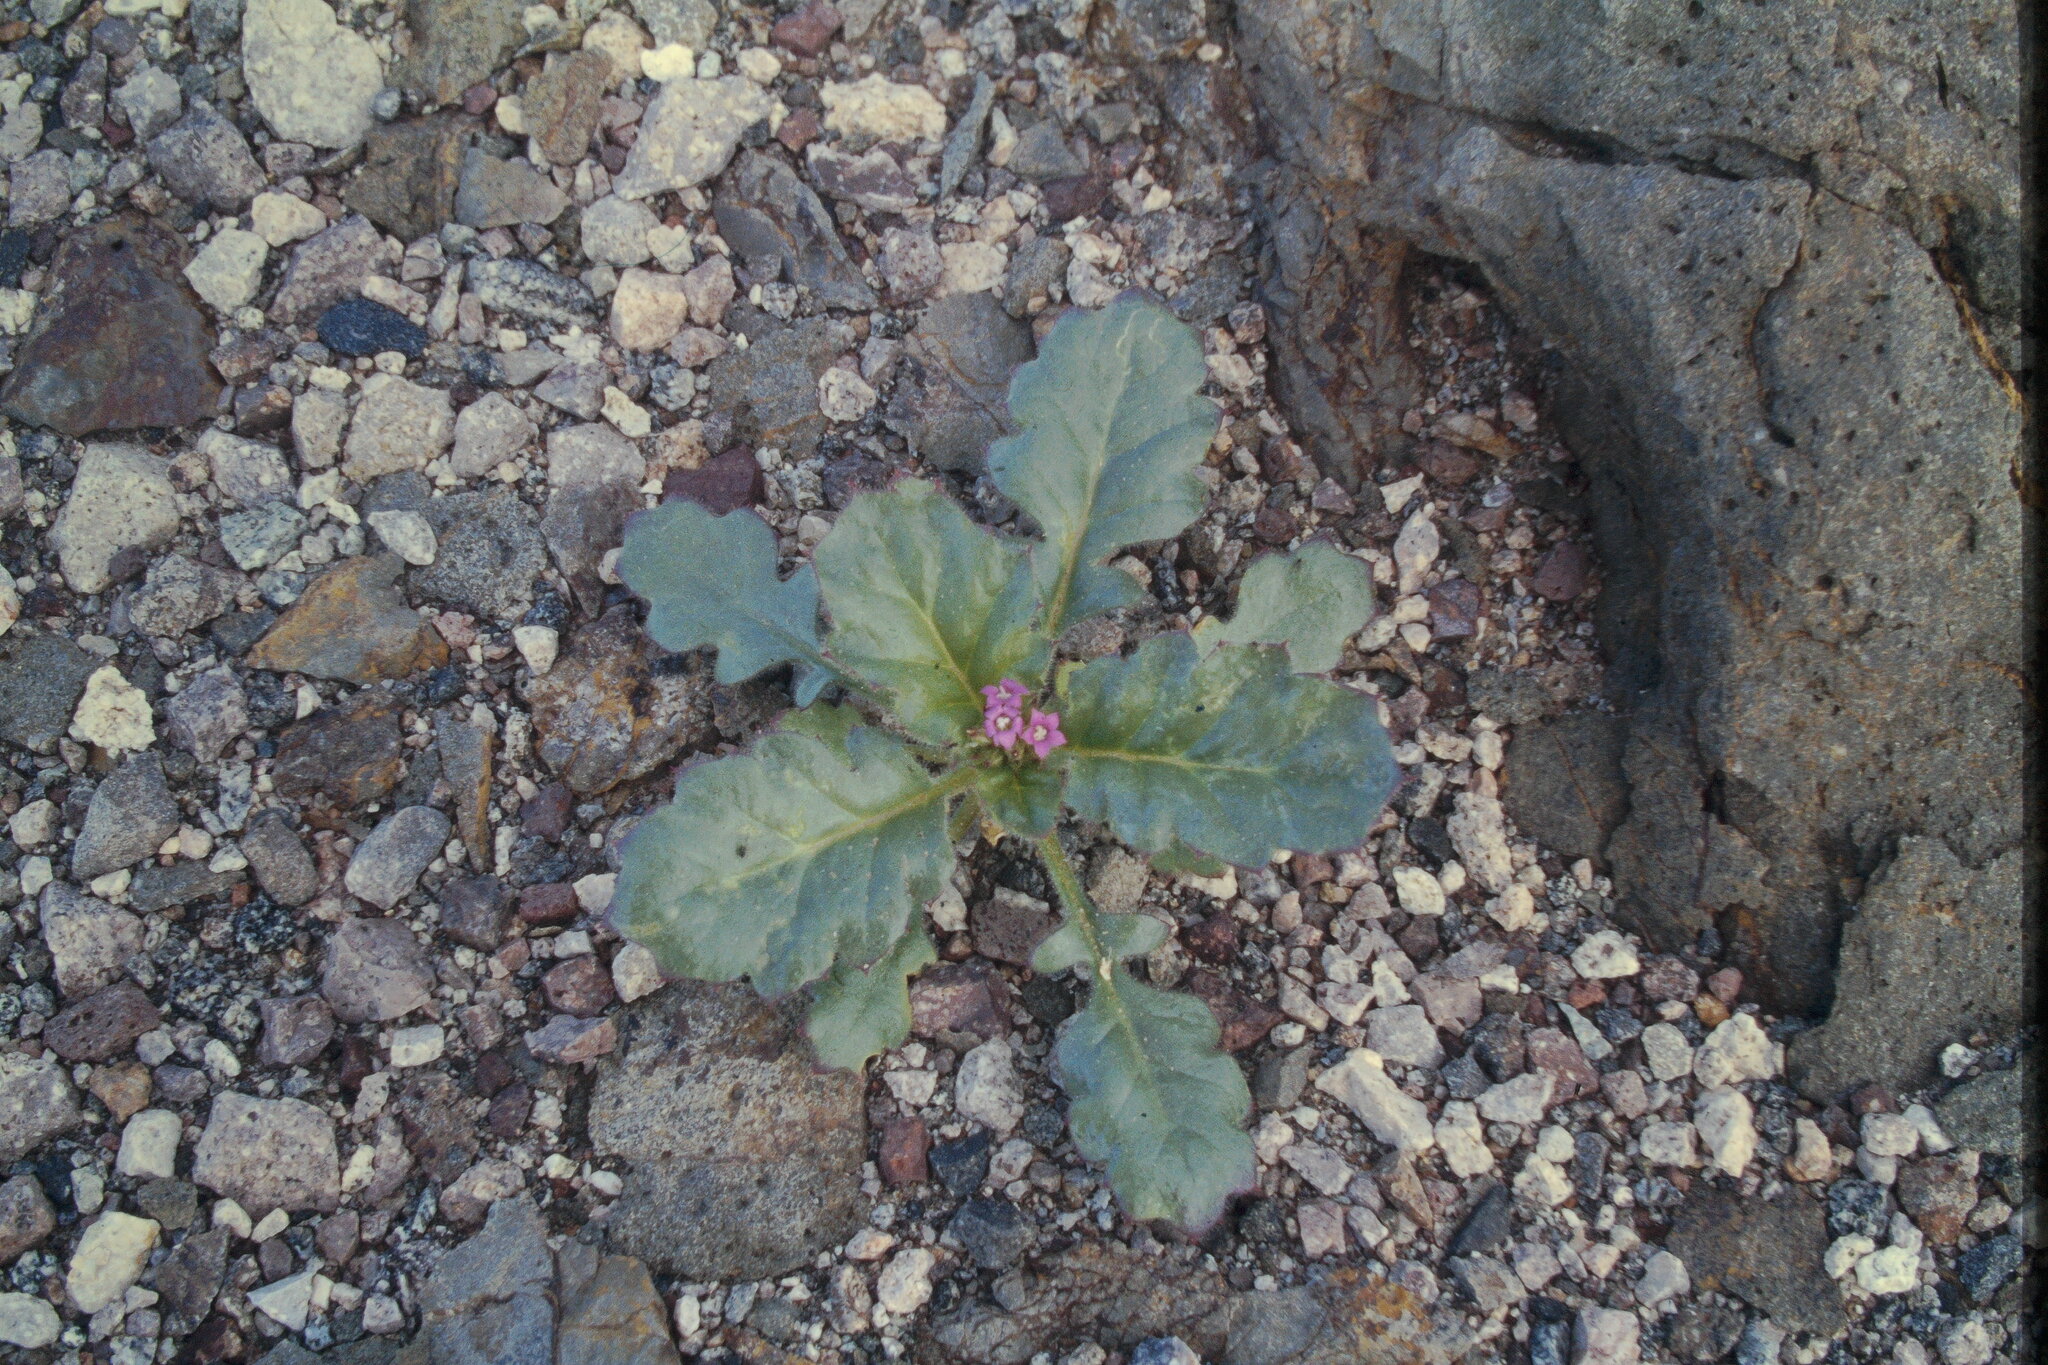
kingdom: Plantae
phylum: Tracheophyta
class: Magnoliopsida
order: Ericales
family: Polemoniaceae
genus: Aliciella
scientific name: Aliciella latifolia
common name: Broad-leaf gilia
